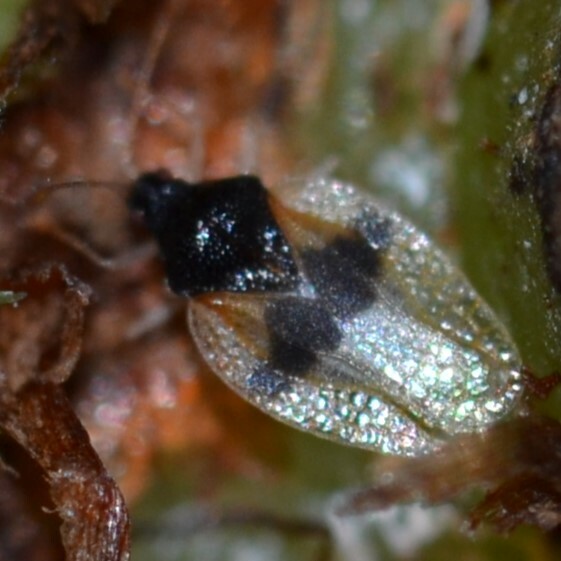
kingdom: Animalia
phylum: Arthropoda
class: Insecta
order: Hemiptera
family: Tingidae
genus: Pseudacysta
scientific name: Pseudacysta perseae
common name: Avocado lace bug
